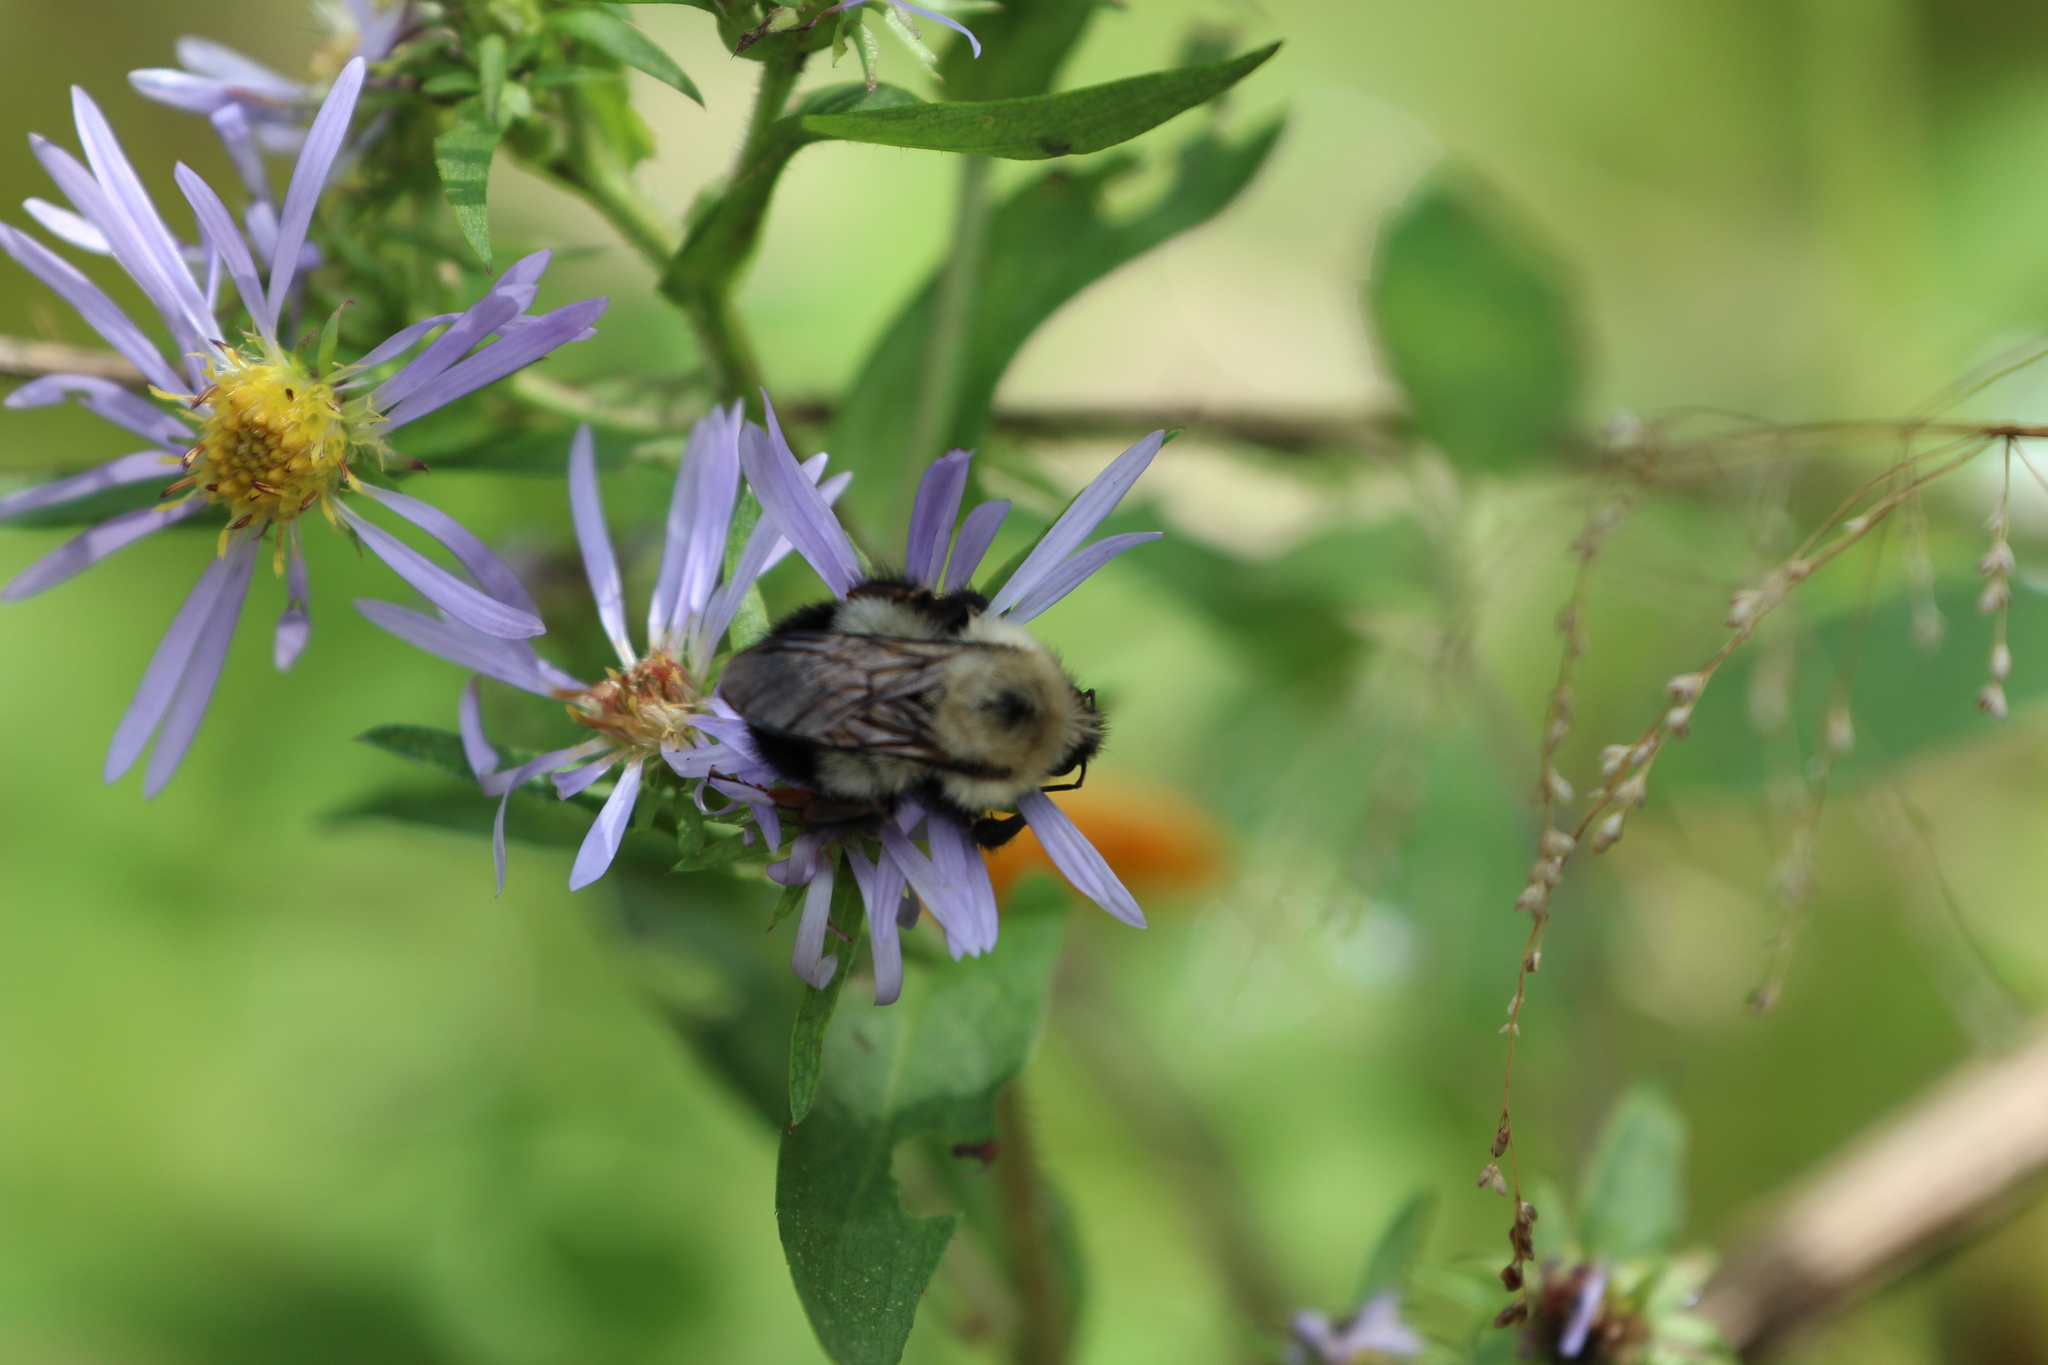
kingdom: Animalia
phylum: Arthropoda
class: Insecta
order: Hymenoptera
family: Apidae
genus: Pyrobombus
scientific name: Pyrobombus
